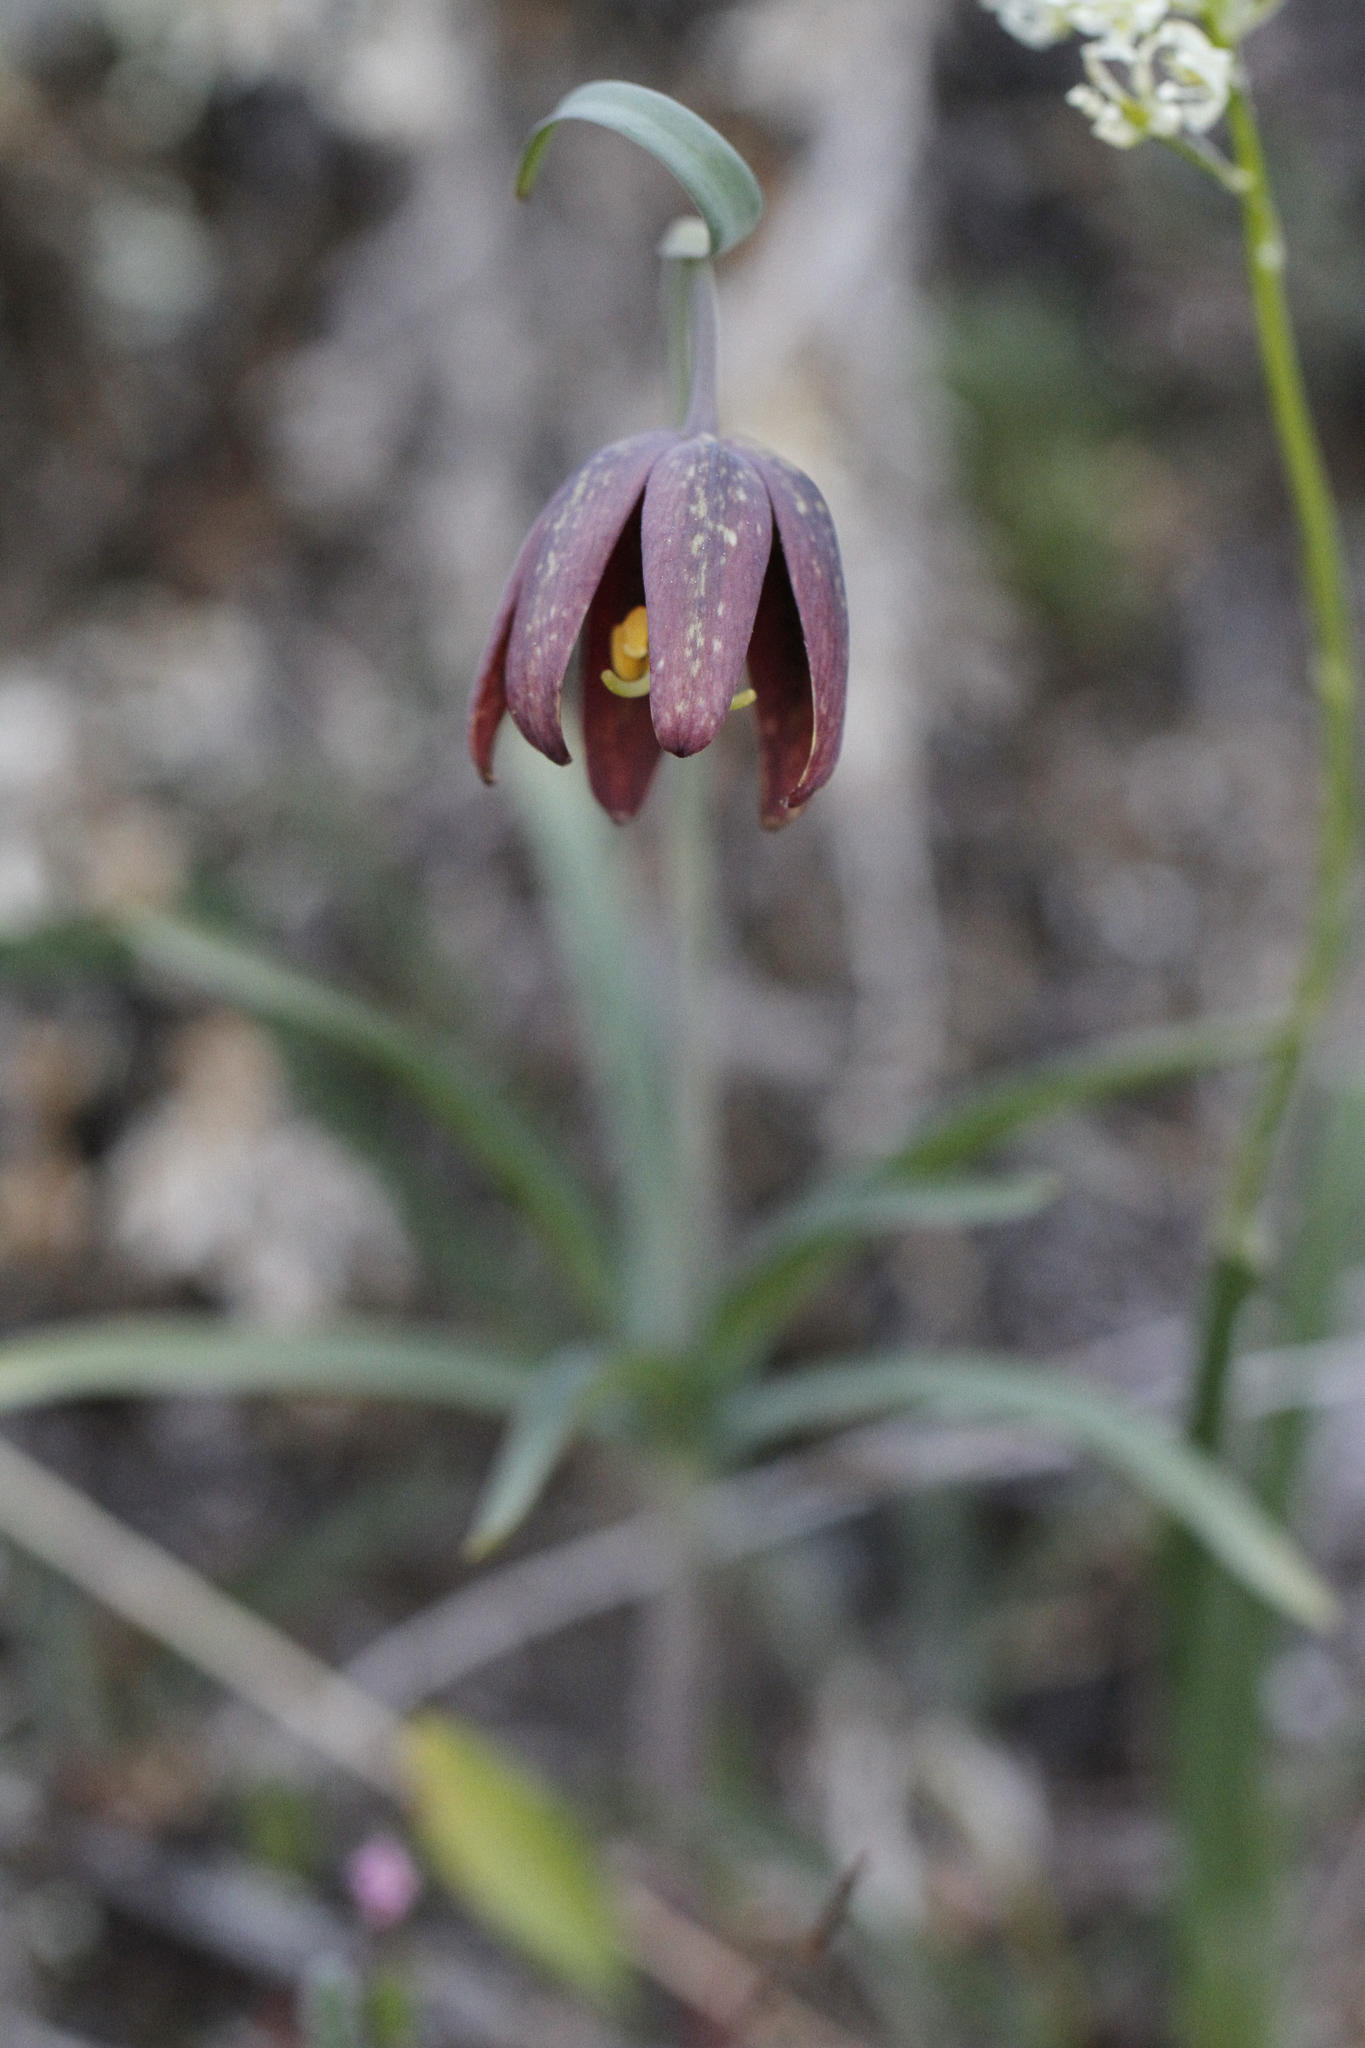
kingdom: Plantae
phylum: Tracheophyta
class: Liliopsida
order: Liliales
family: Liliaceae
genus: Fritillaria
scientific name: Fritillaria affinis
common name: Ojai fritillary
